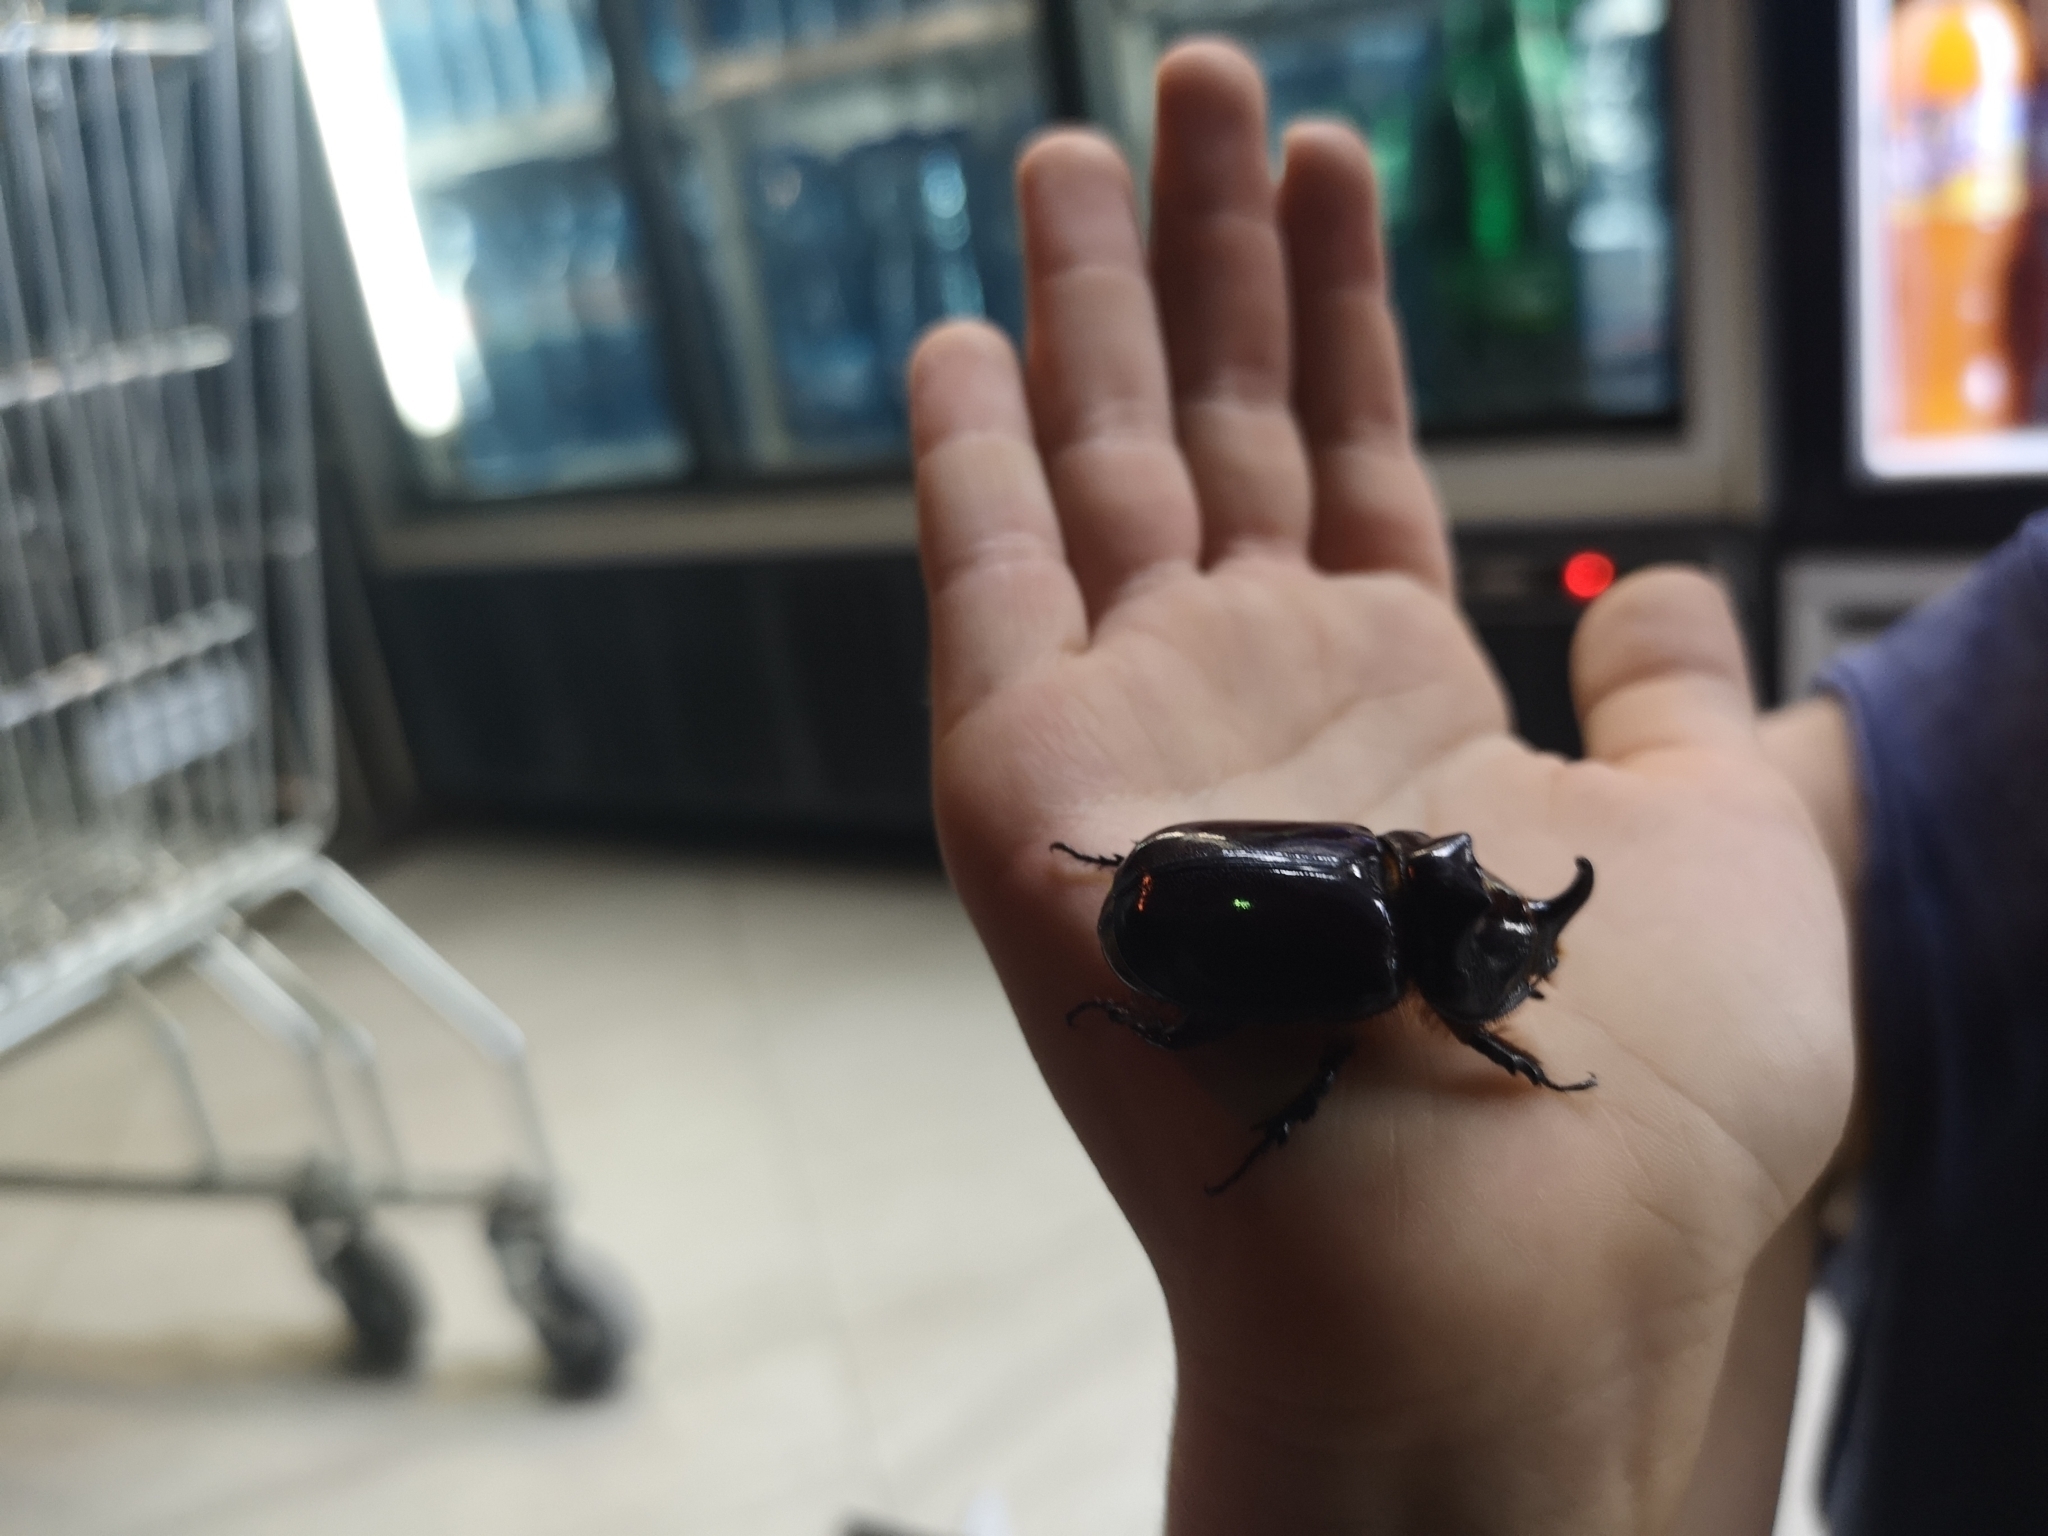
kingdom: Animalia
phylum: Arthropoda
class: Insecta
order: Coleoptera
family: Scarabaeidae
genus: Oryctes
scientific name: Oryctes nasicornis
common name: European rhinoceros beetle
